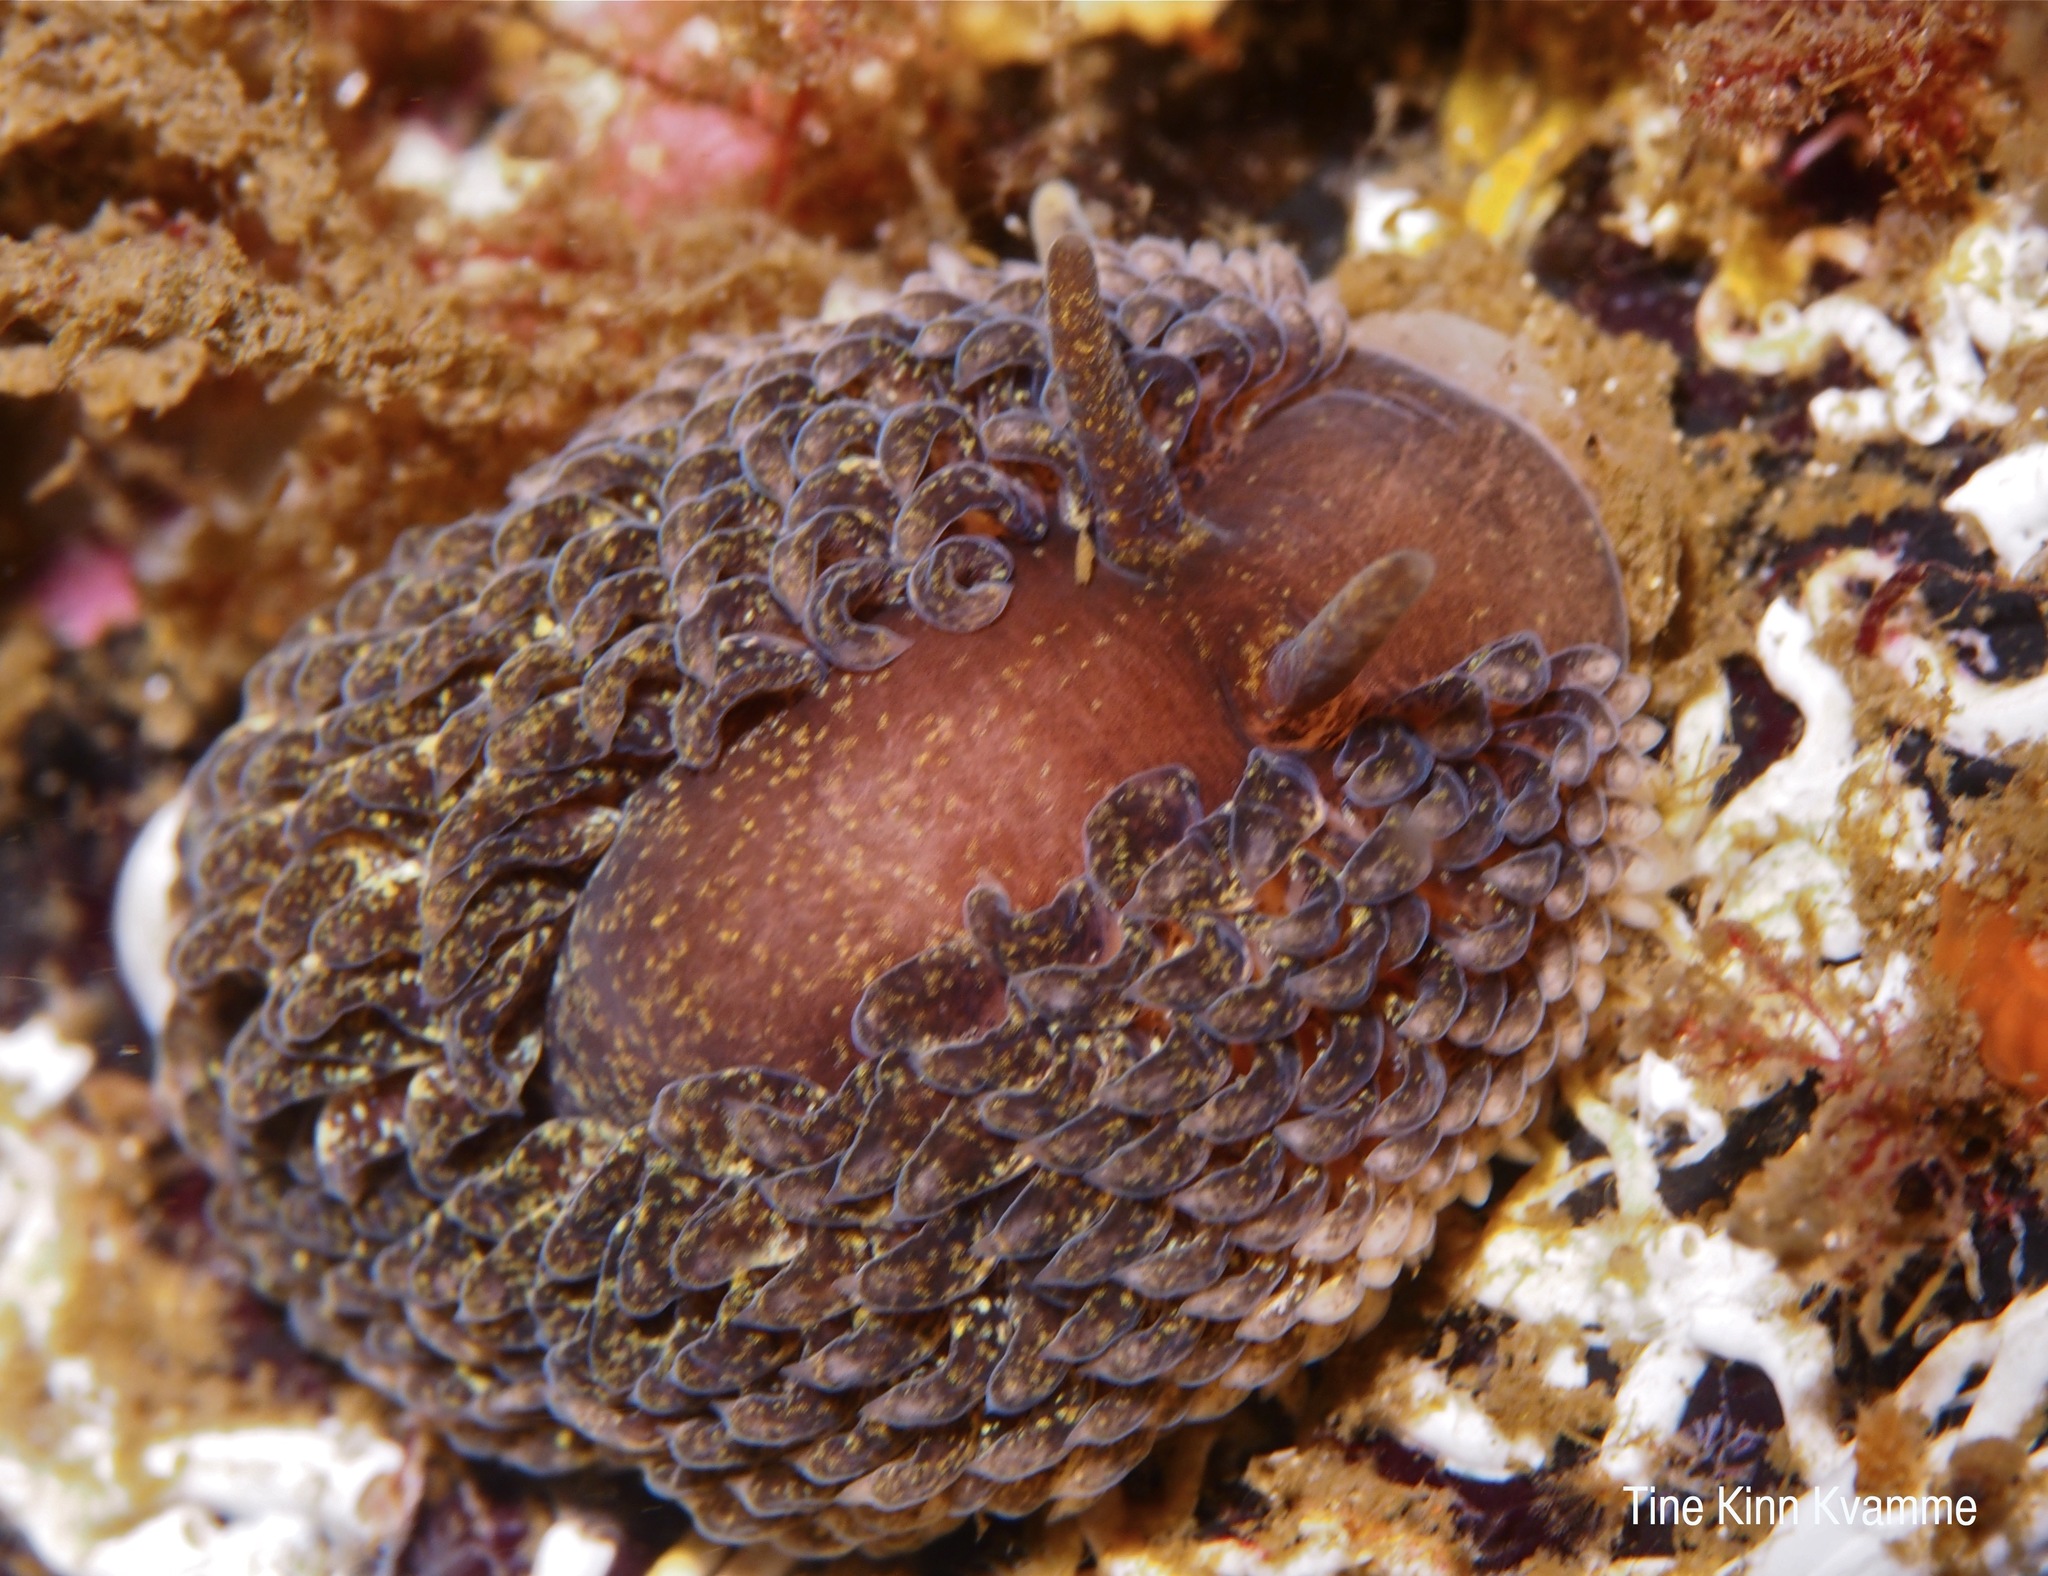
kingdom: Animalia
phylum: Mollusca
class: Gastropoda
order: Nudibranchia
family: Aeolidiidae
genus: Aeolidia
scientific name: Aeolidia papillosa
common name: Common grey sea slug
